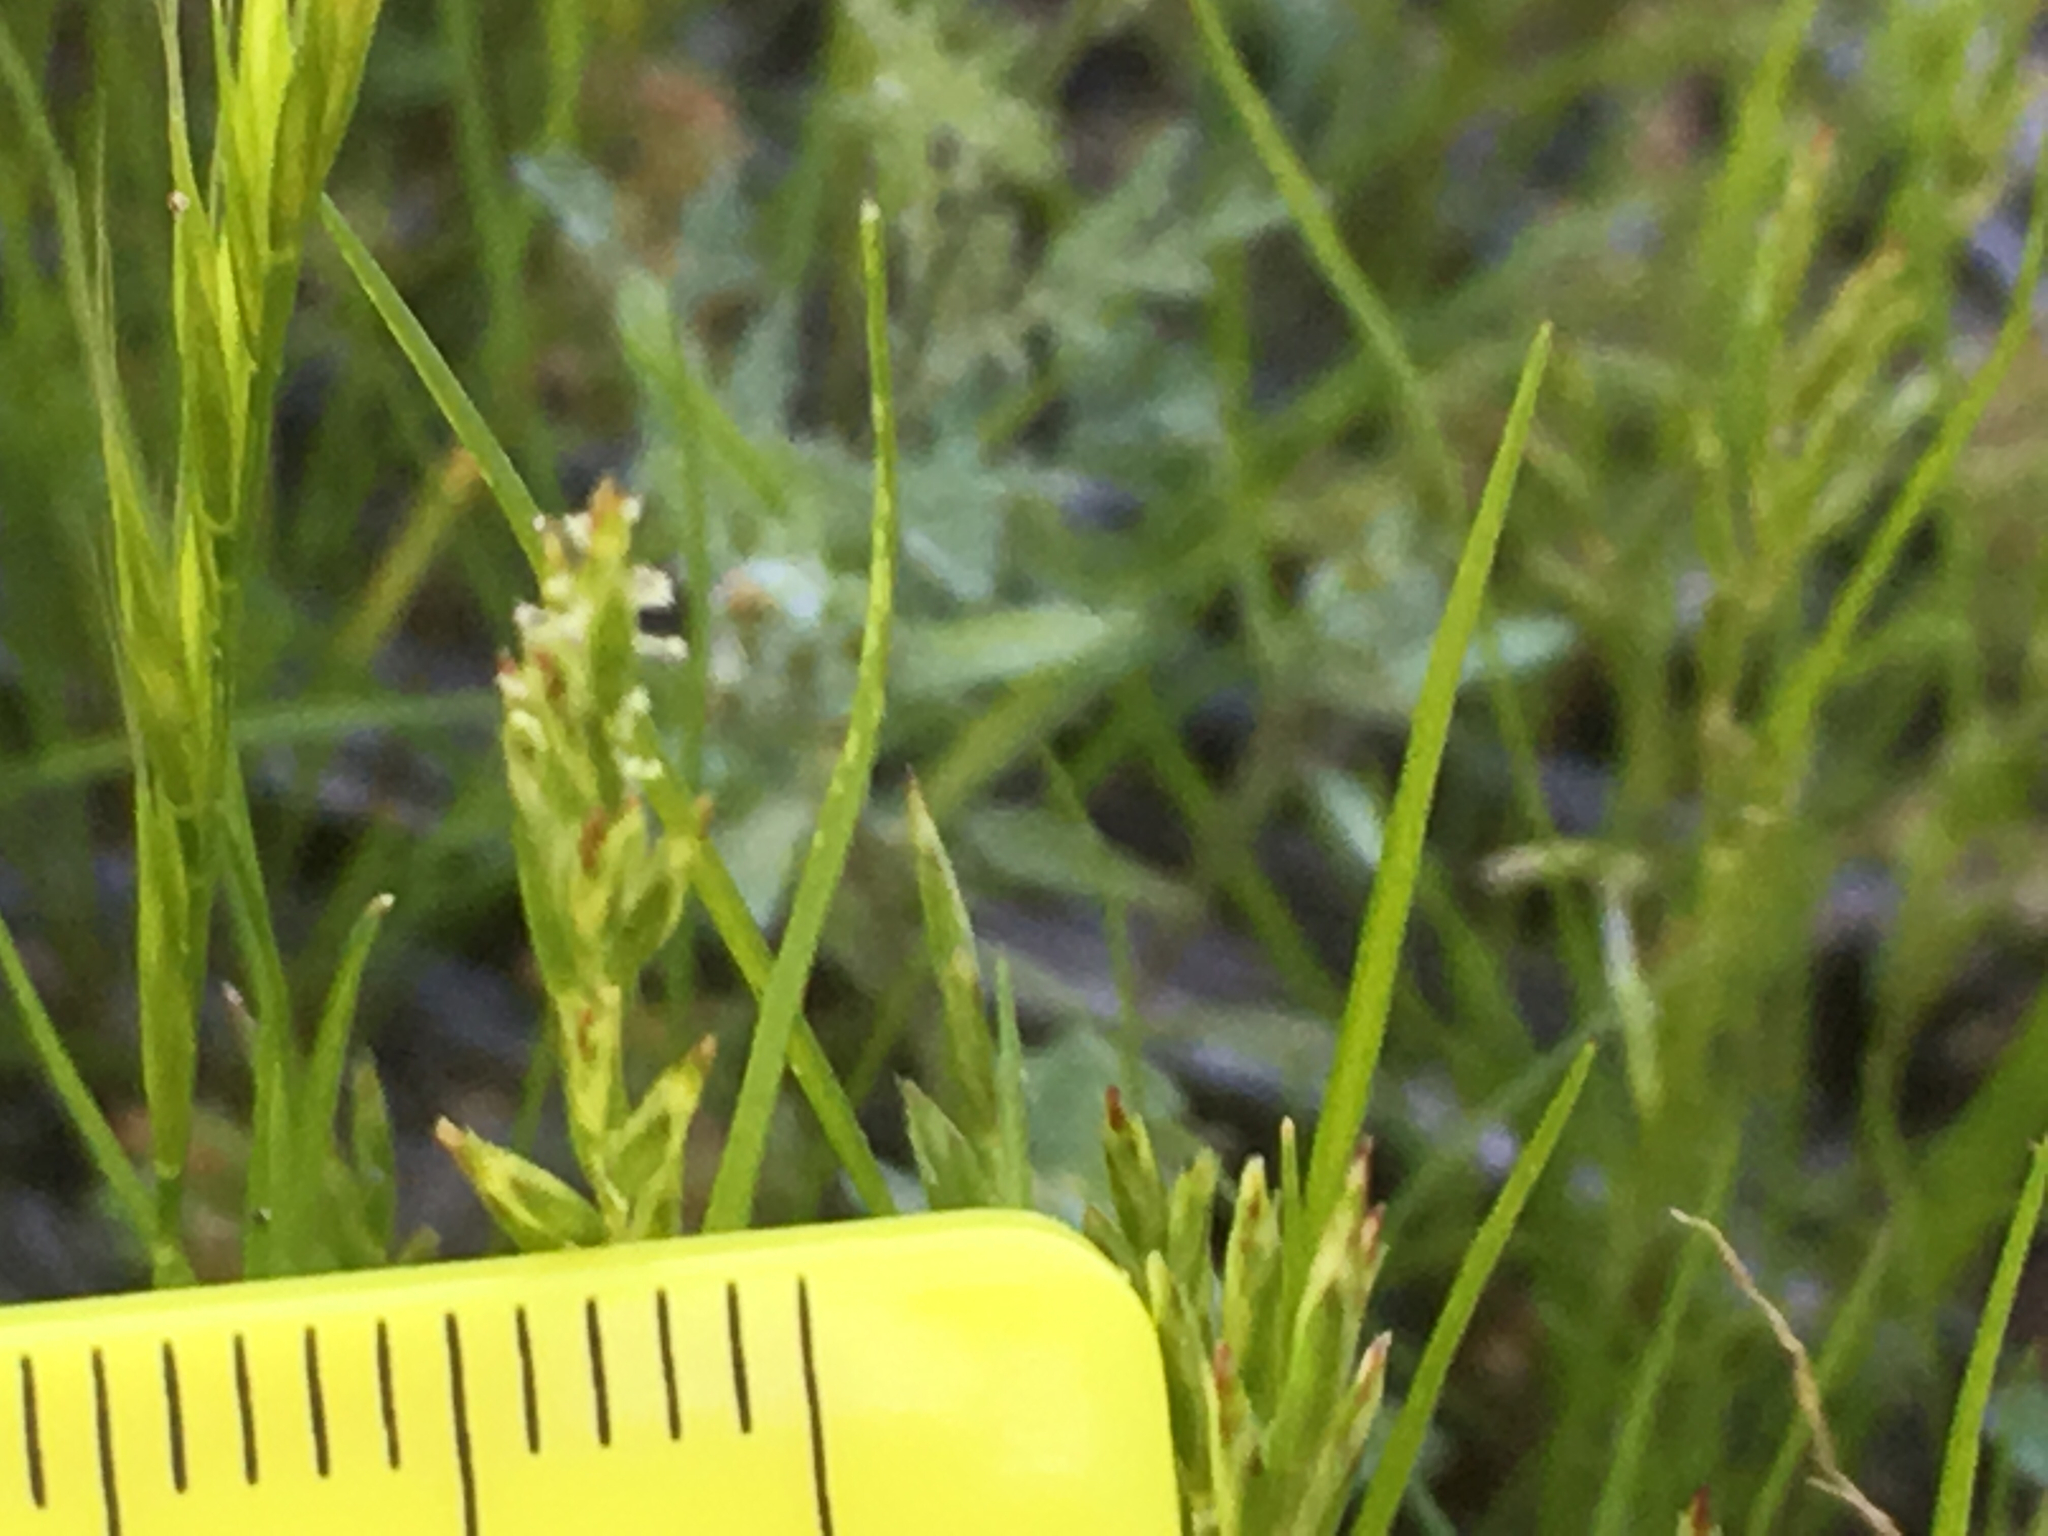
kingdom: Plantae
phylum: Tracheophyta
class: Liliopsida
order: Poales
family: Poaceae
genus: Schismus
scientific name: Schismus barbatus
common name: Kelch-grass
